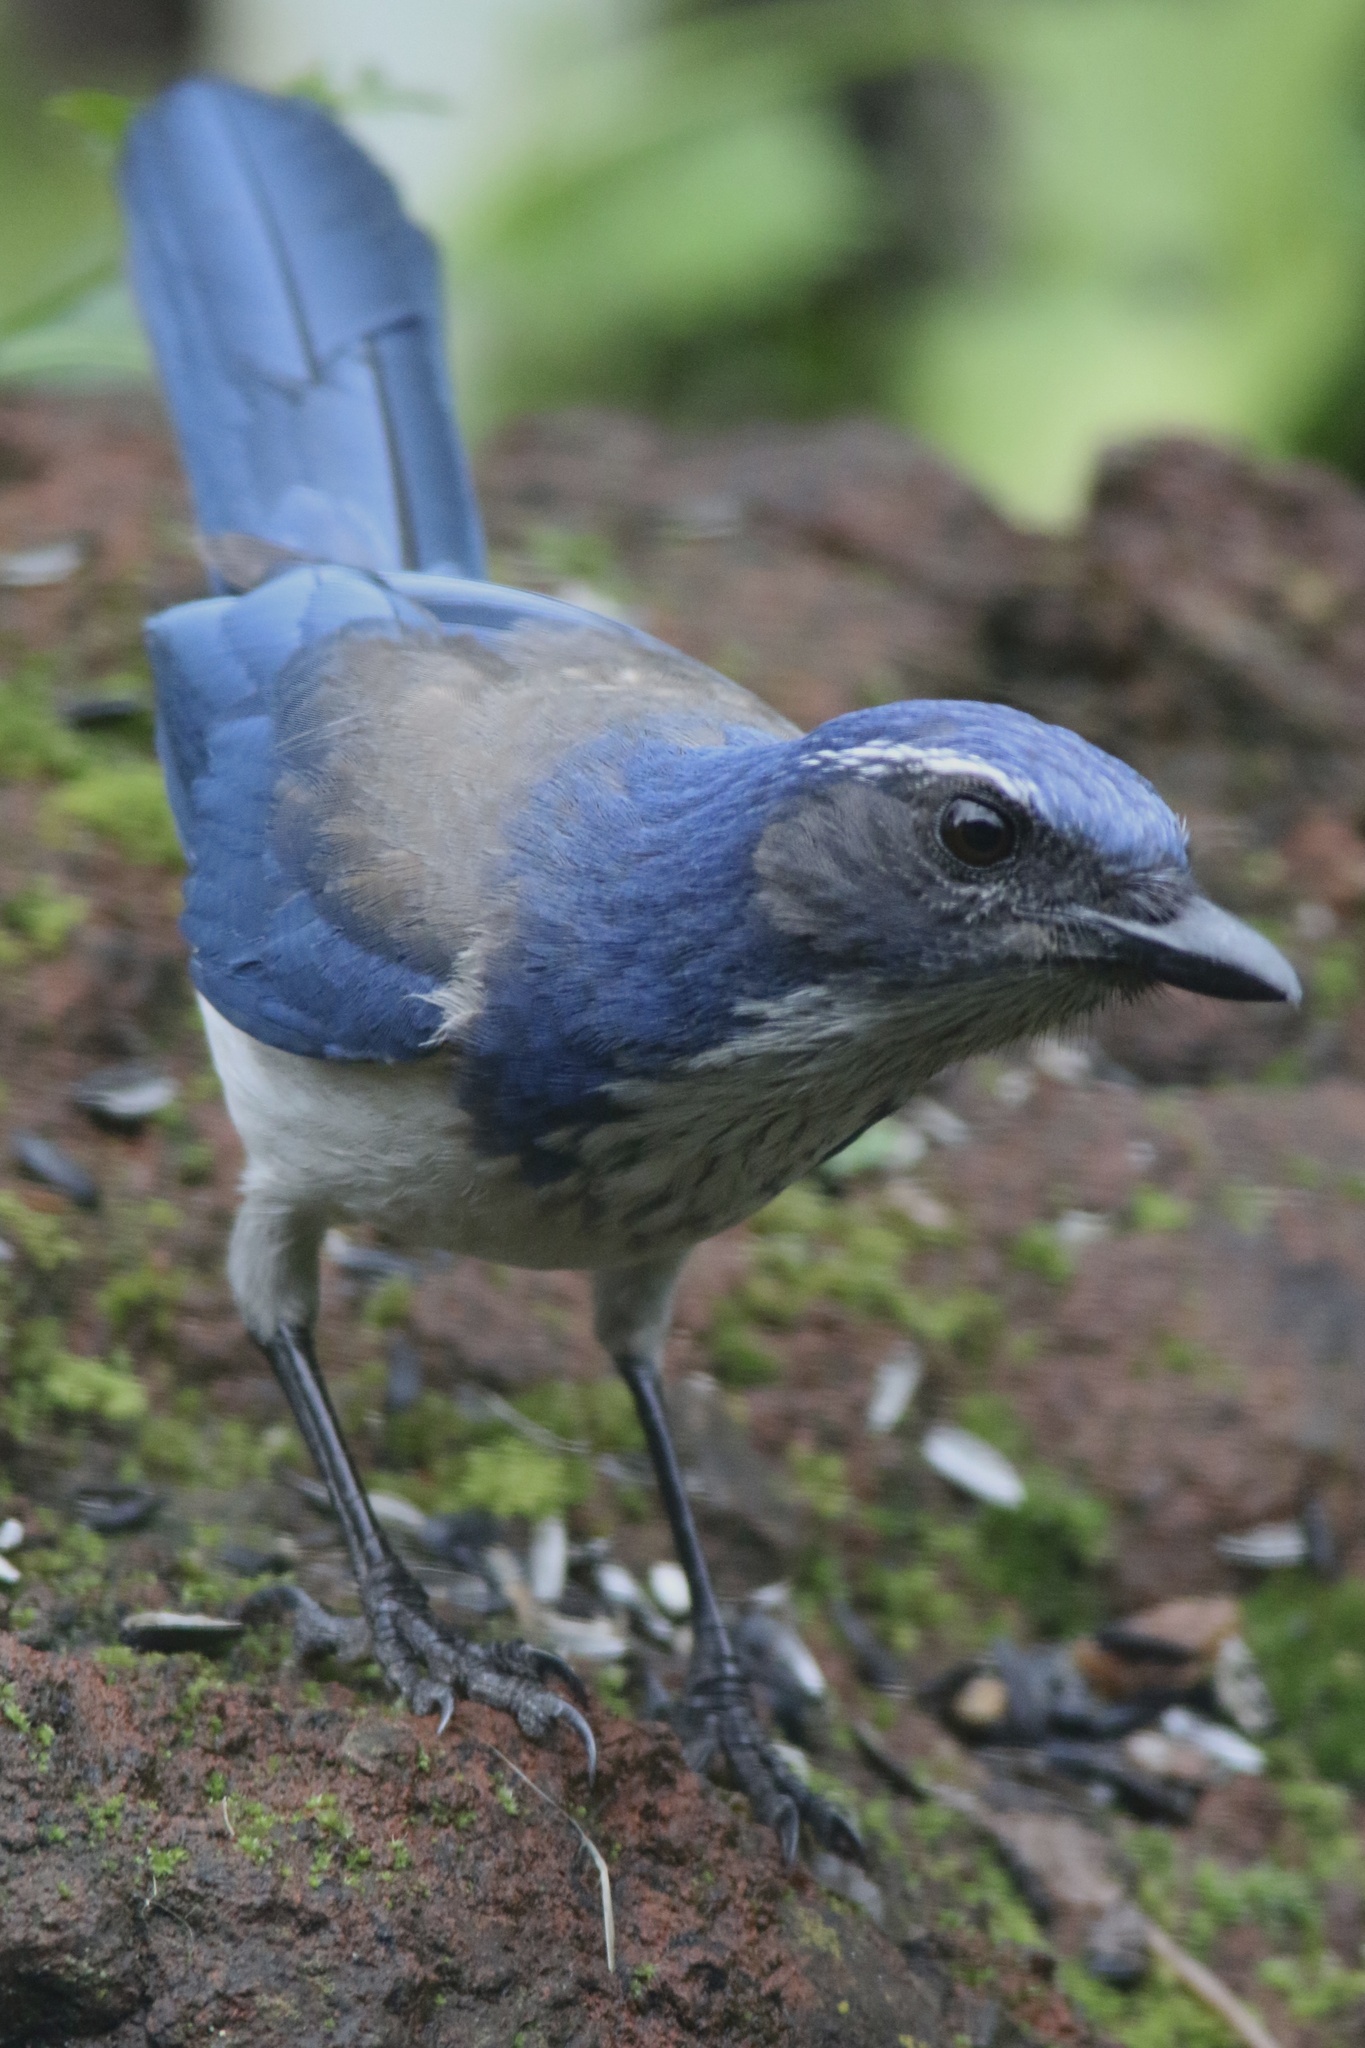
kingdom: Animalia
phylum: Chordata
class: Aves
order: Passeriformes
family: Corvidae
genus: Aphelocoma
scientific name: Aphelocoma californica
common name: California scrub-jay
